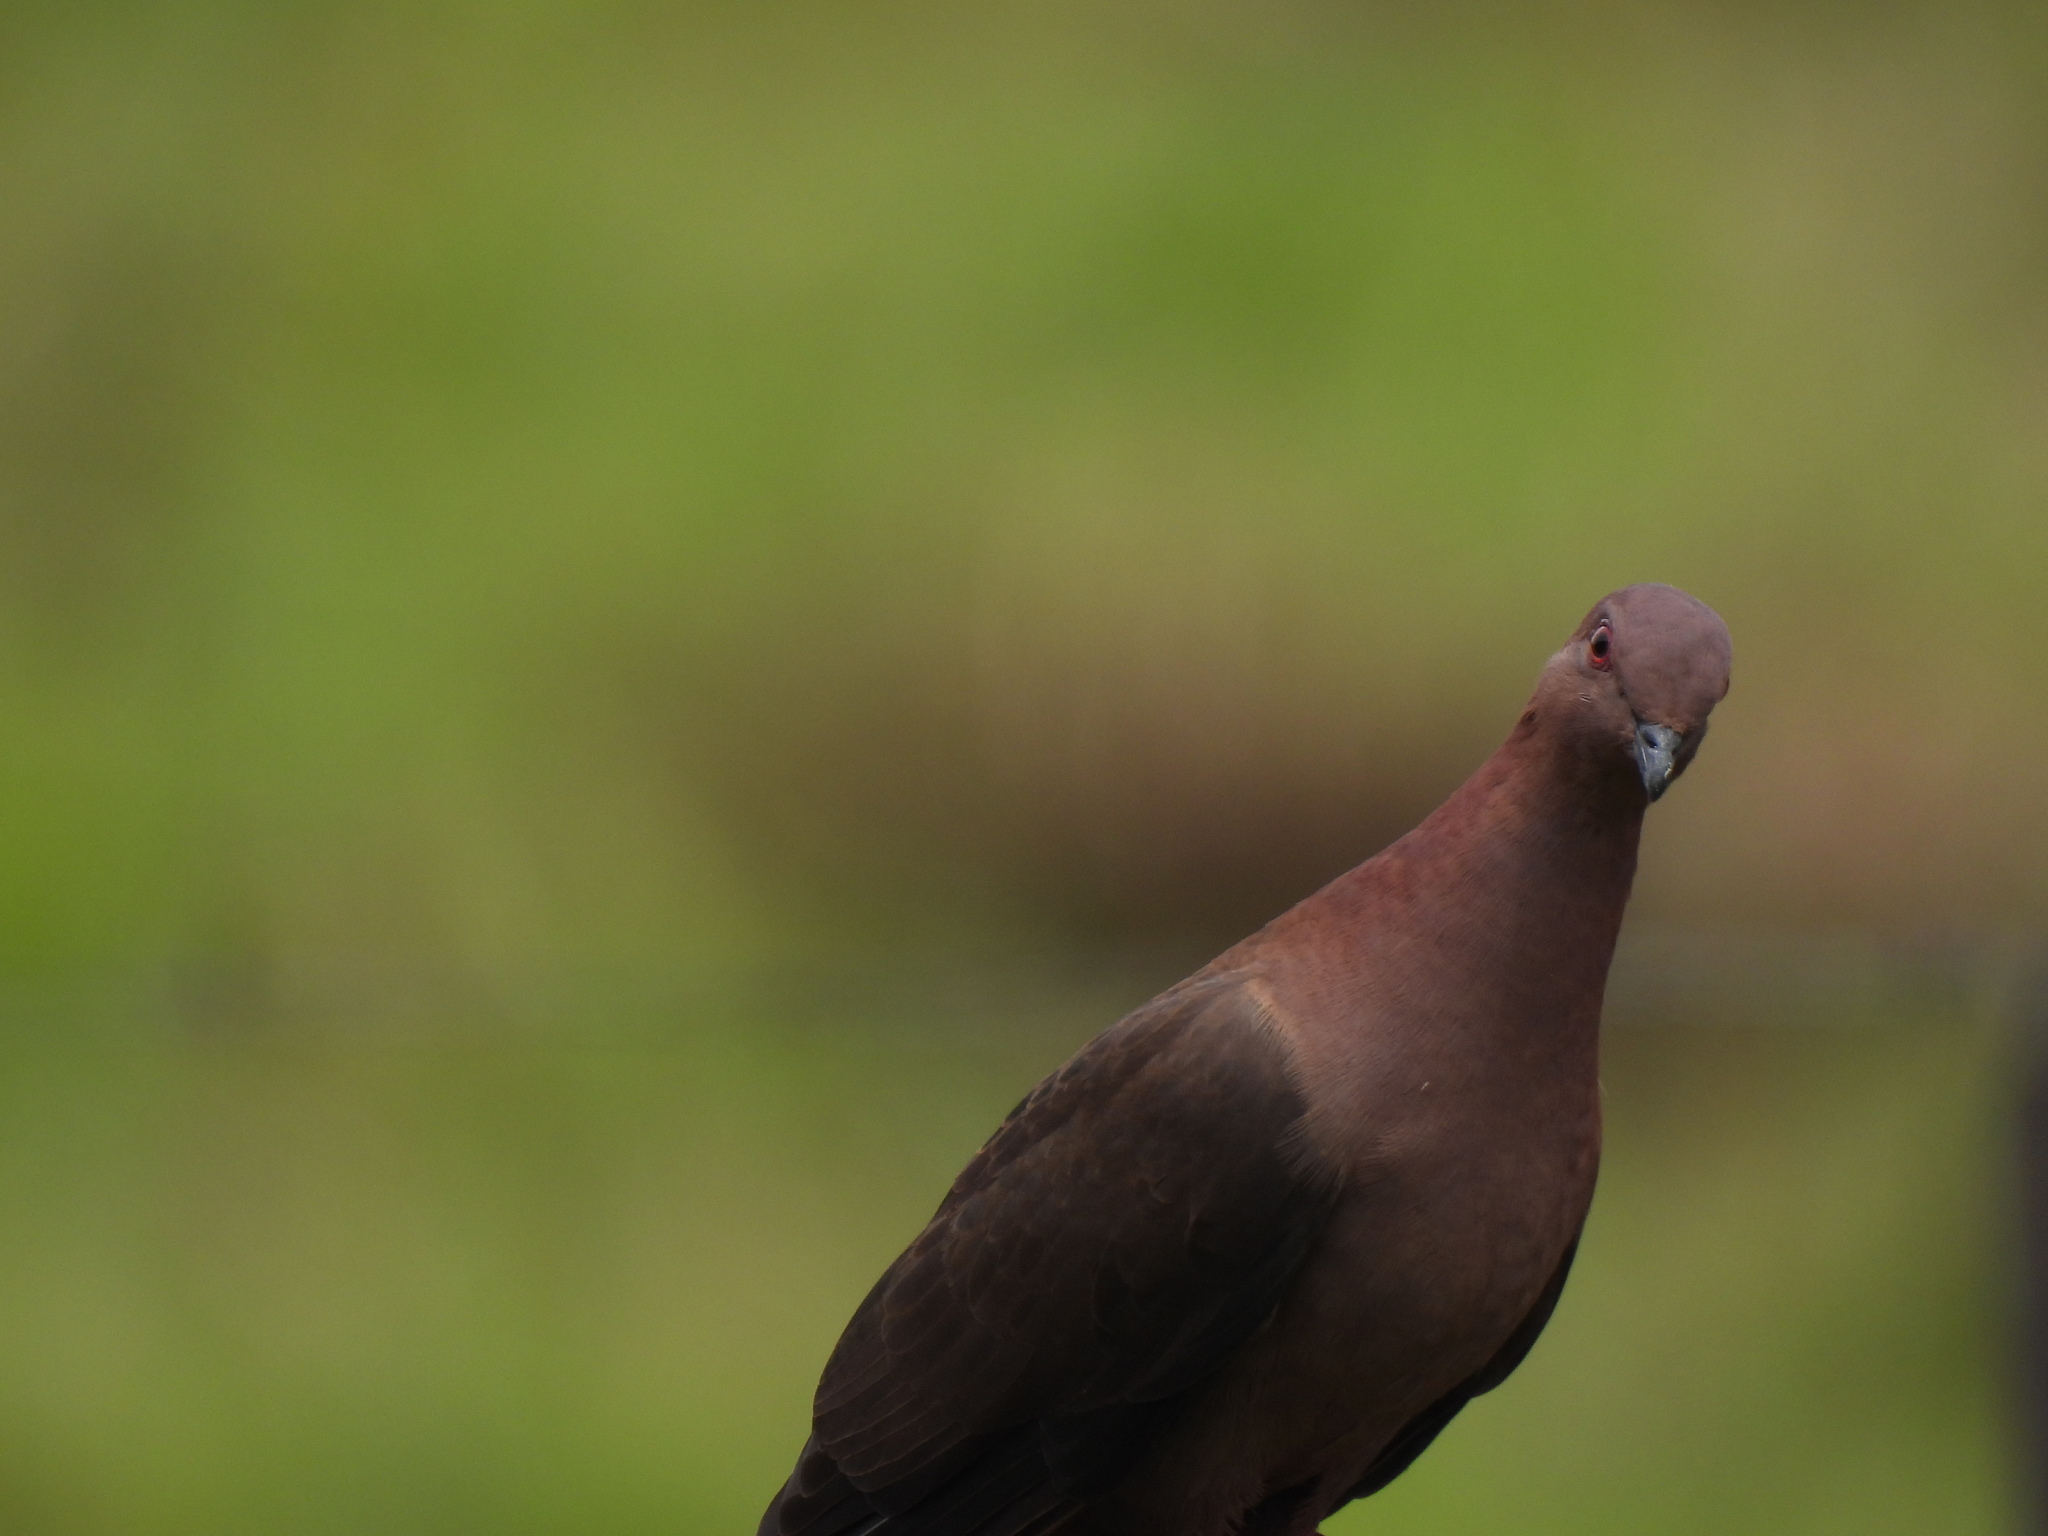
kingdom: Animalia
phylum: Chordata
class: Aves
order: Columbiformes
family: Columbidae
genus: Patagioenas
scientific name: Patagioenas nigrirostris
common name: Short-billed pigeon
